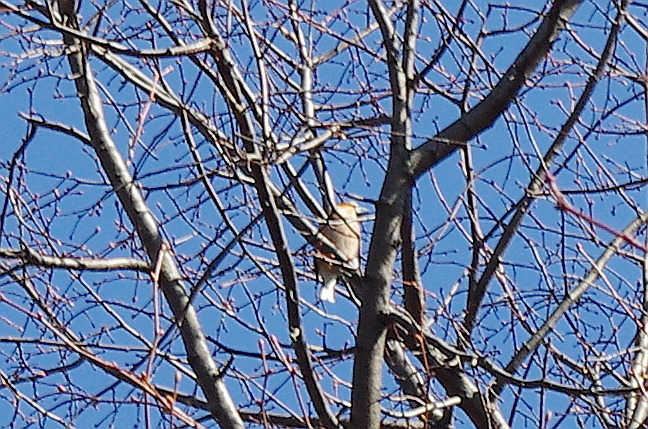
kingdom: Animalia
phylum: Chordata
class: Aves
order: Passeriformes
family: Fringillidae
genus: Coccothraustes
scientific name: Coccothraustes coccothraustes
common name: Hawfinch
